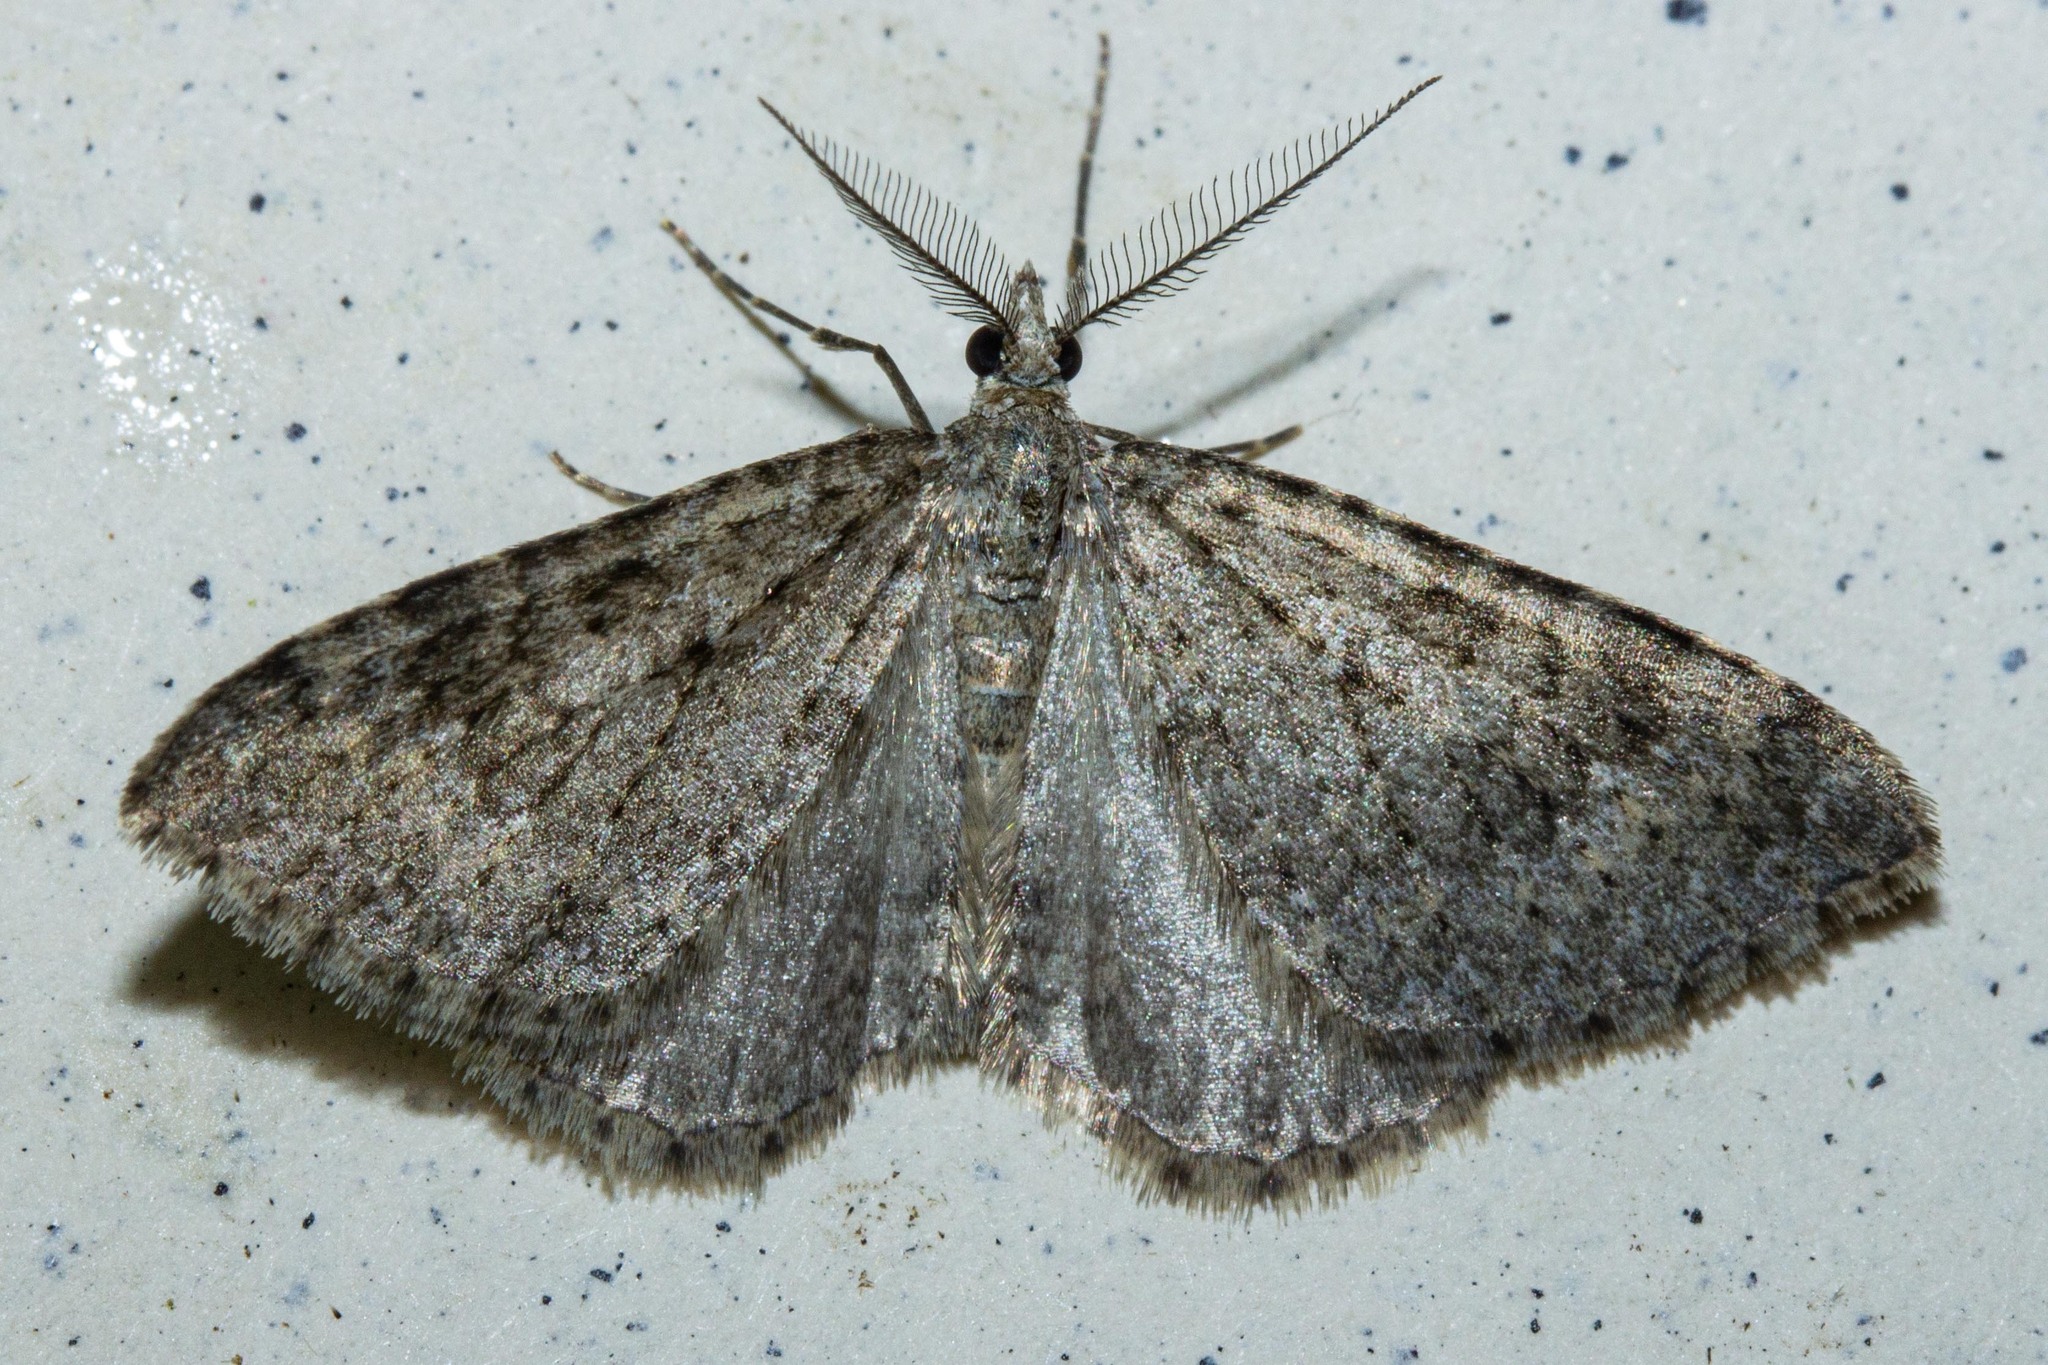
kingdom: Animalia
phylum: Arthropoda
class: Insecta
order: Lepidoptera
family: Geometridae
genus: Helastia
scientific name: Helastia corcularia
